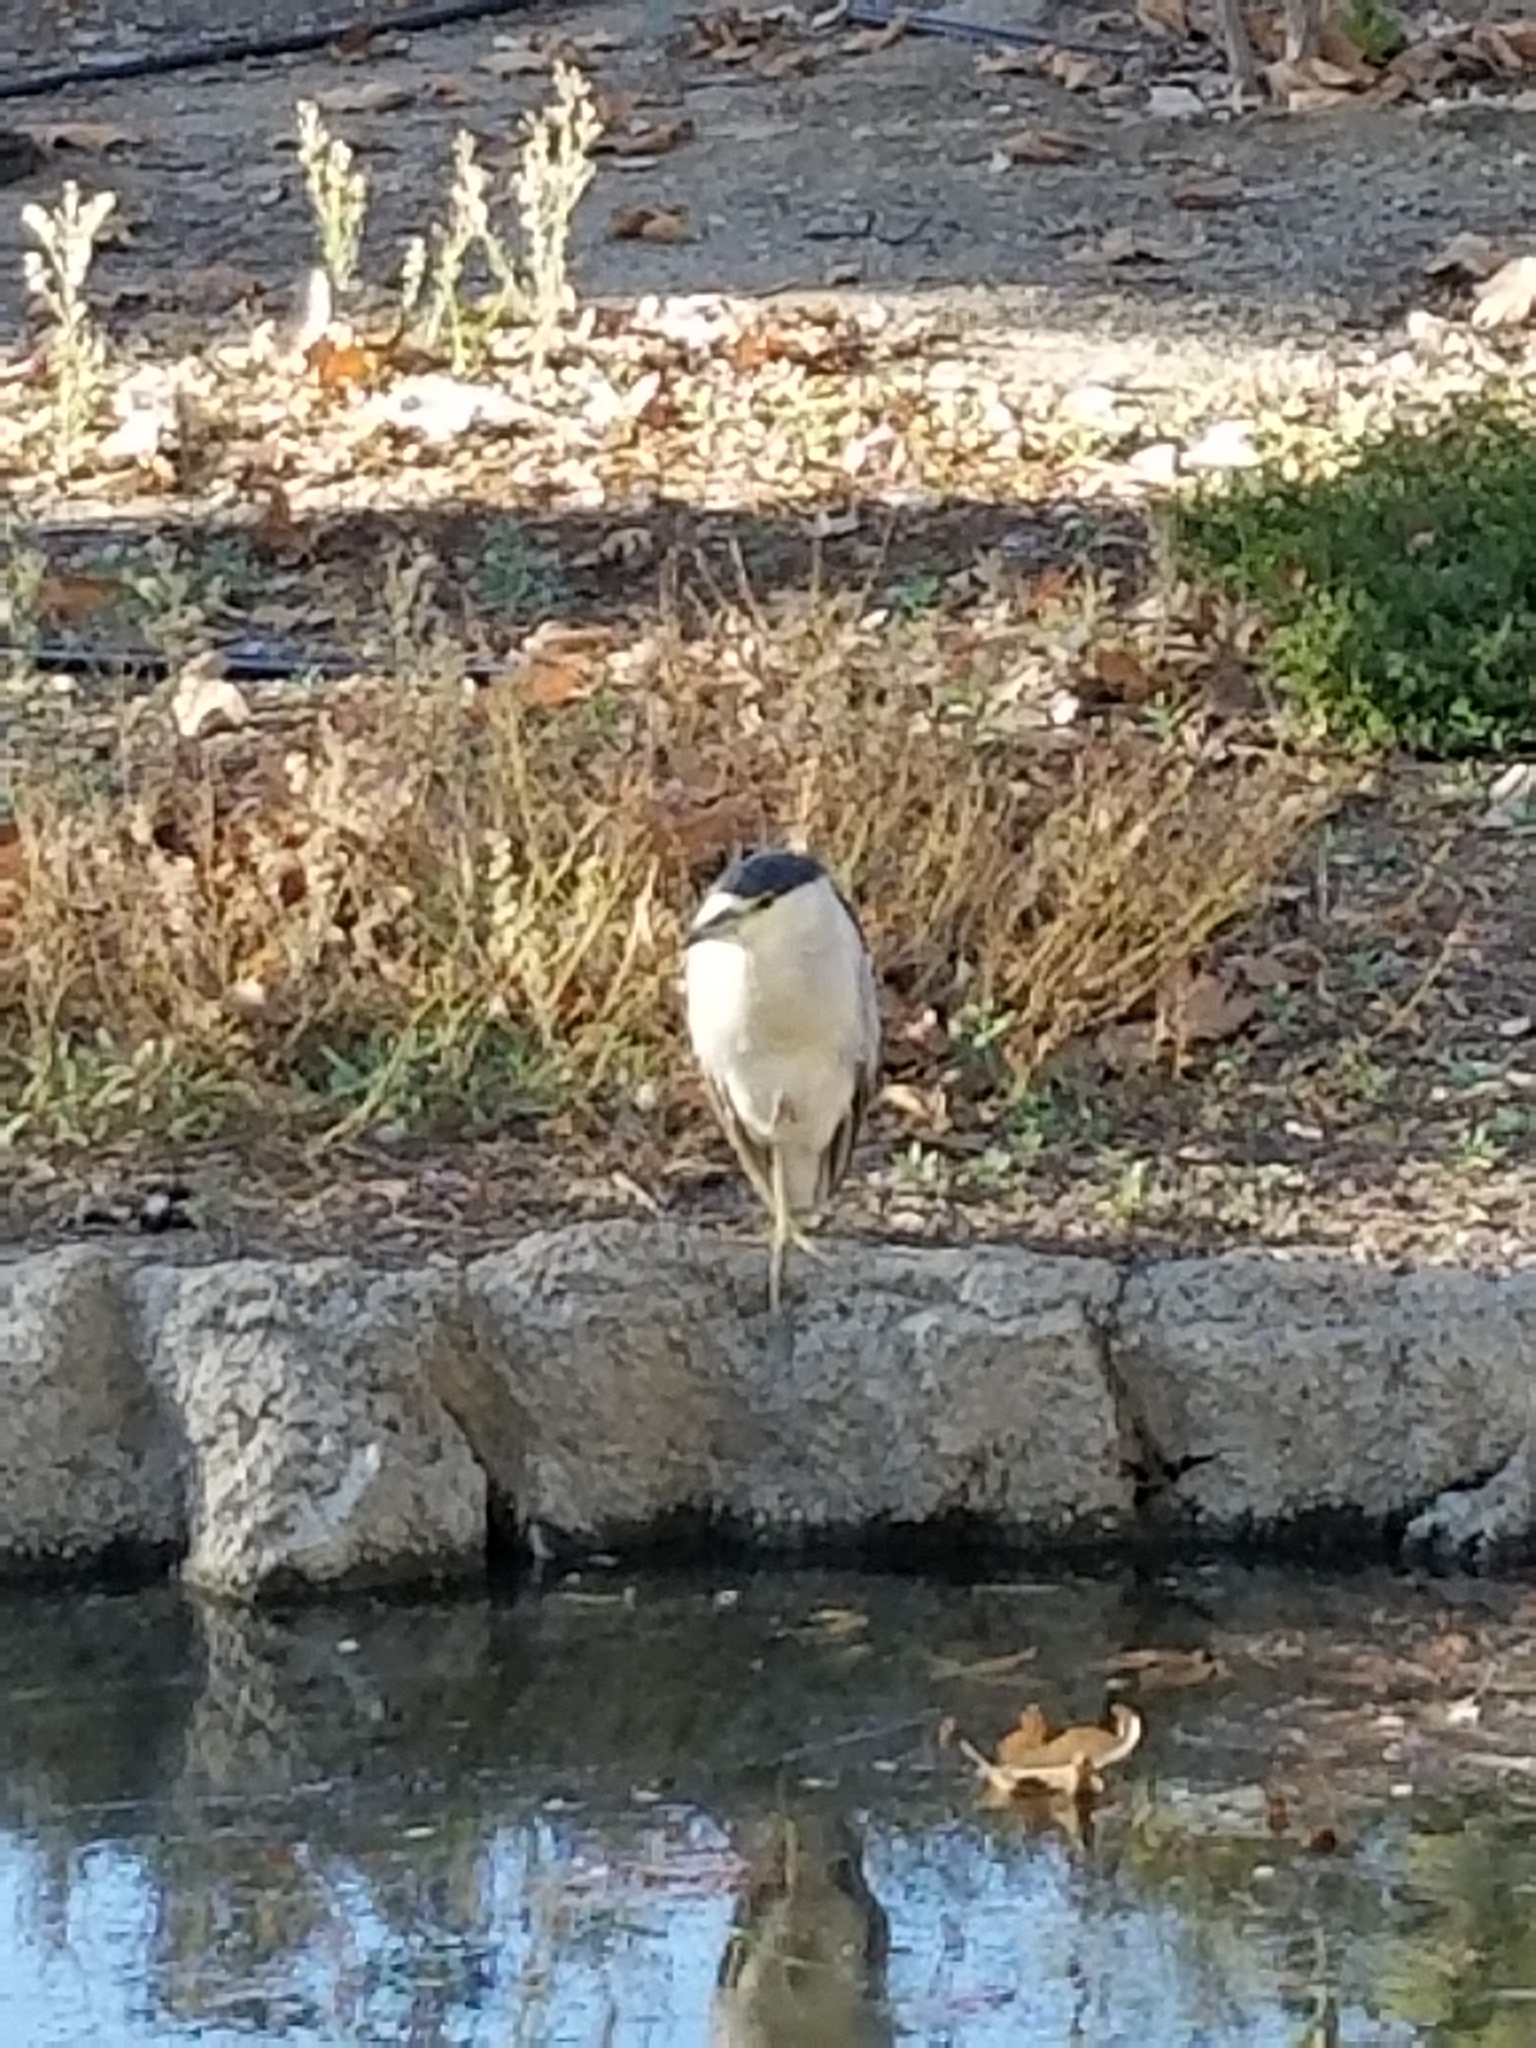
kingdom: Animalia
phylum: Chordata
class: Aves
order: Pelecaniformes
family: Ardeidae
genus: Nycticorax
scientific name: Nycticorax nycticorax
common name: Black-crowned night heron
